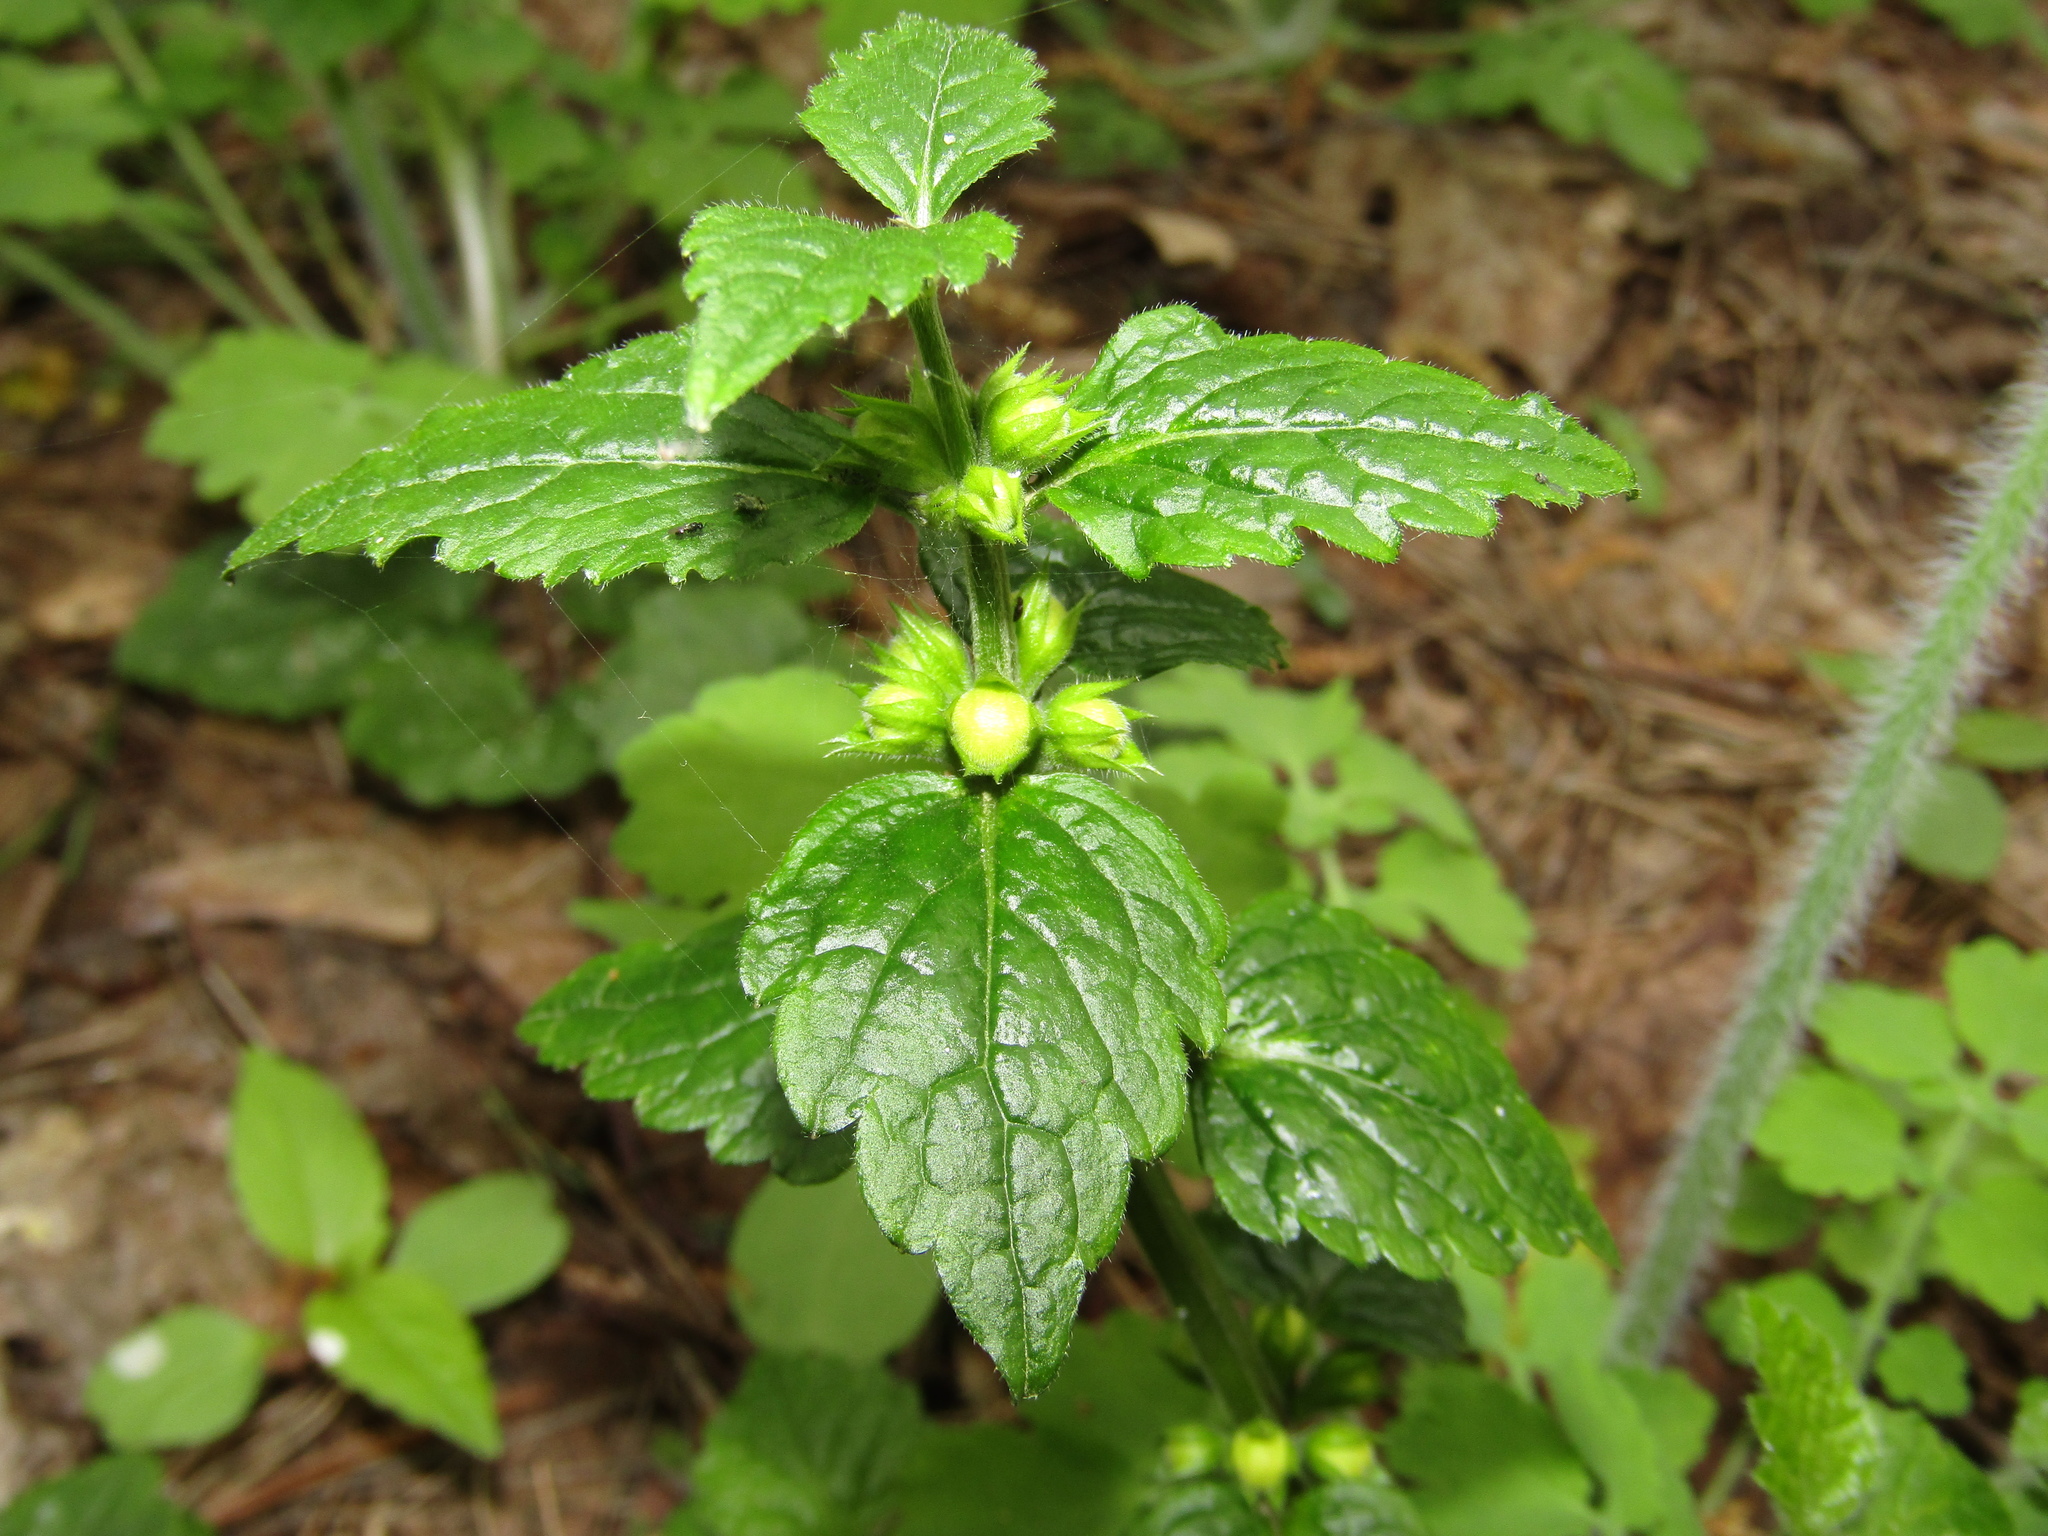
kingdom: Plantae
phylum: Tracheophyta
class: Magnoliopsida
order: Lamiales
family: Lamiaceae
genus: Lamium
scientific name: Lamium galeobdolon
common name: Yellow archangel
